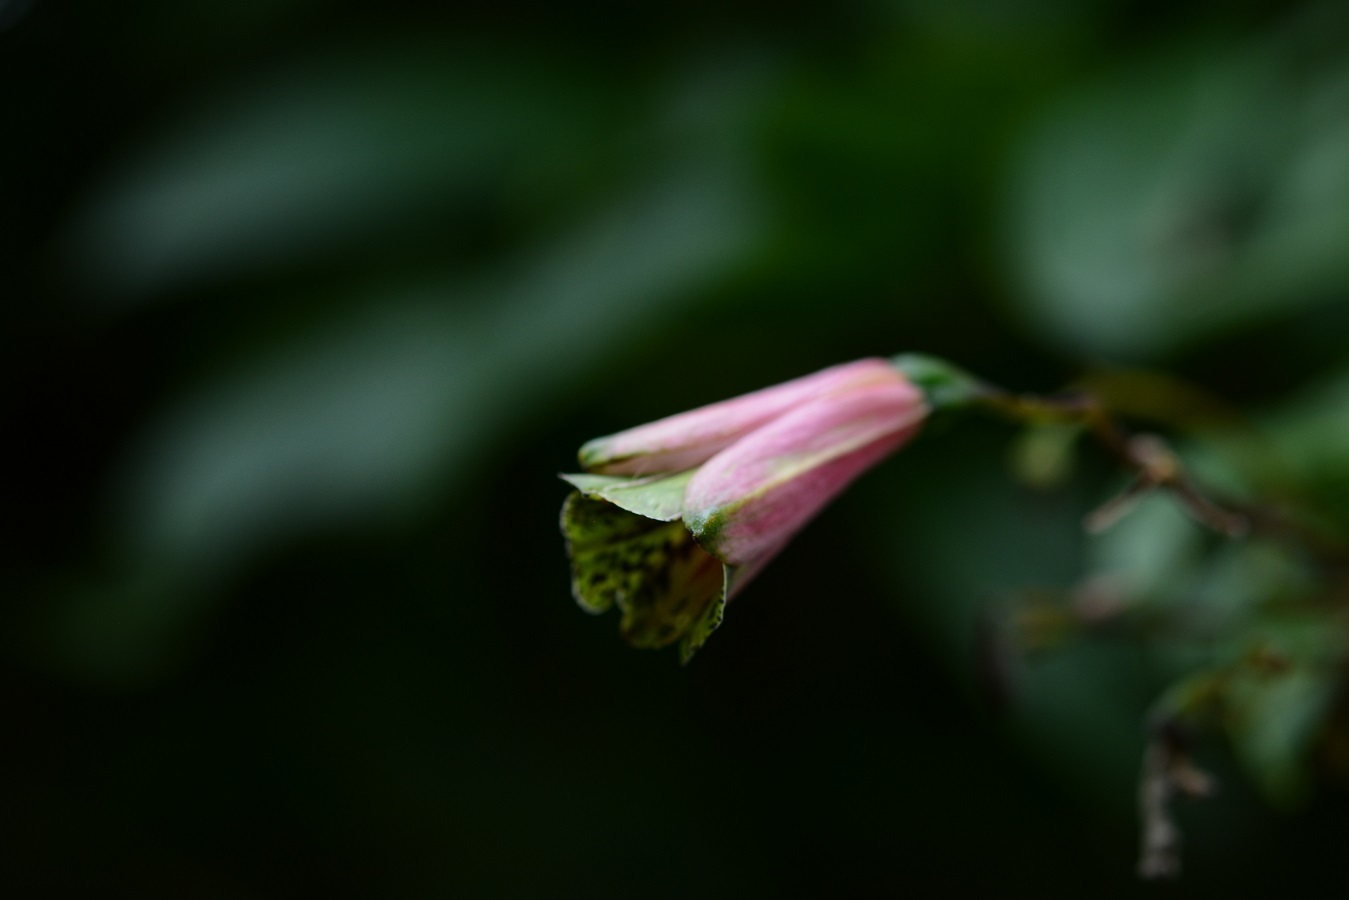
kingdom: Plantae
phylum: Tracheophyta
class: Liliopsida
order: Liliales
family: Alstroemeriaceae
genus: Bomarea
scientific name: Bomarea edulis
